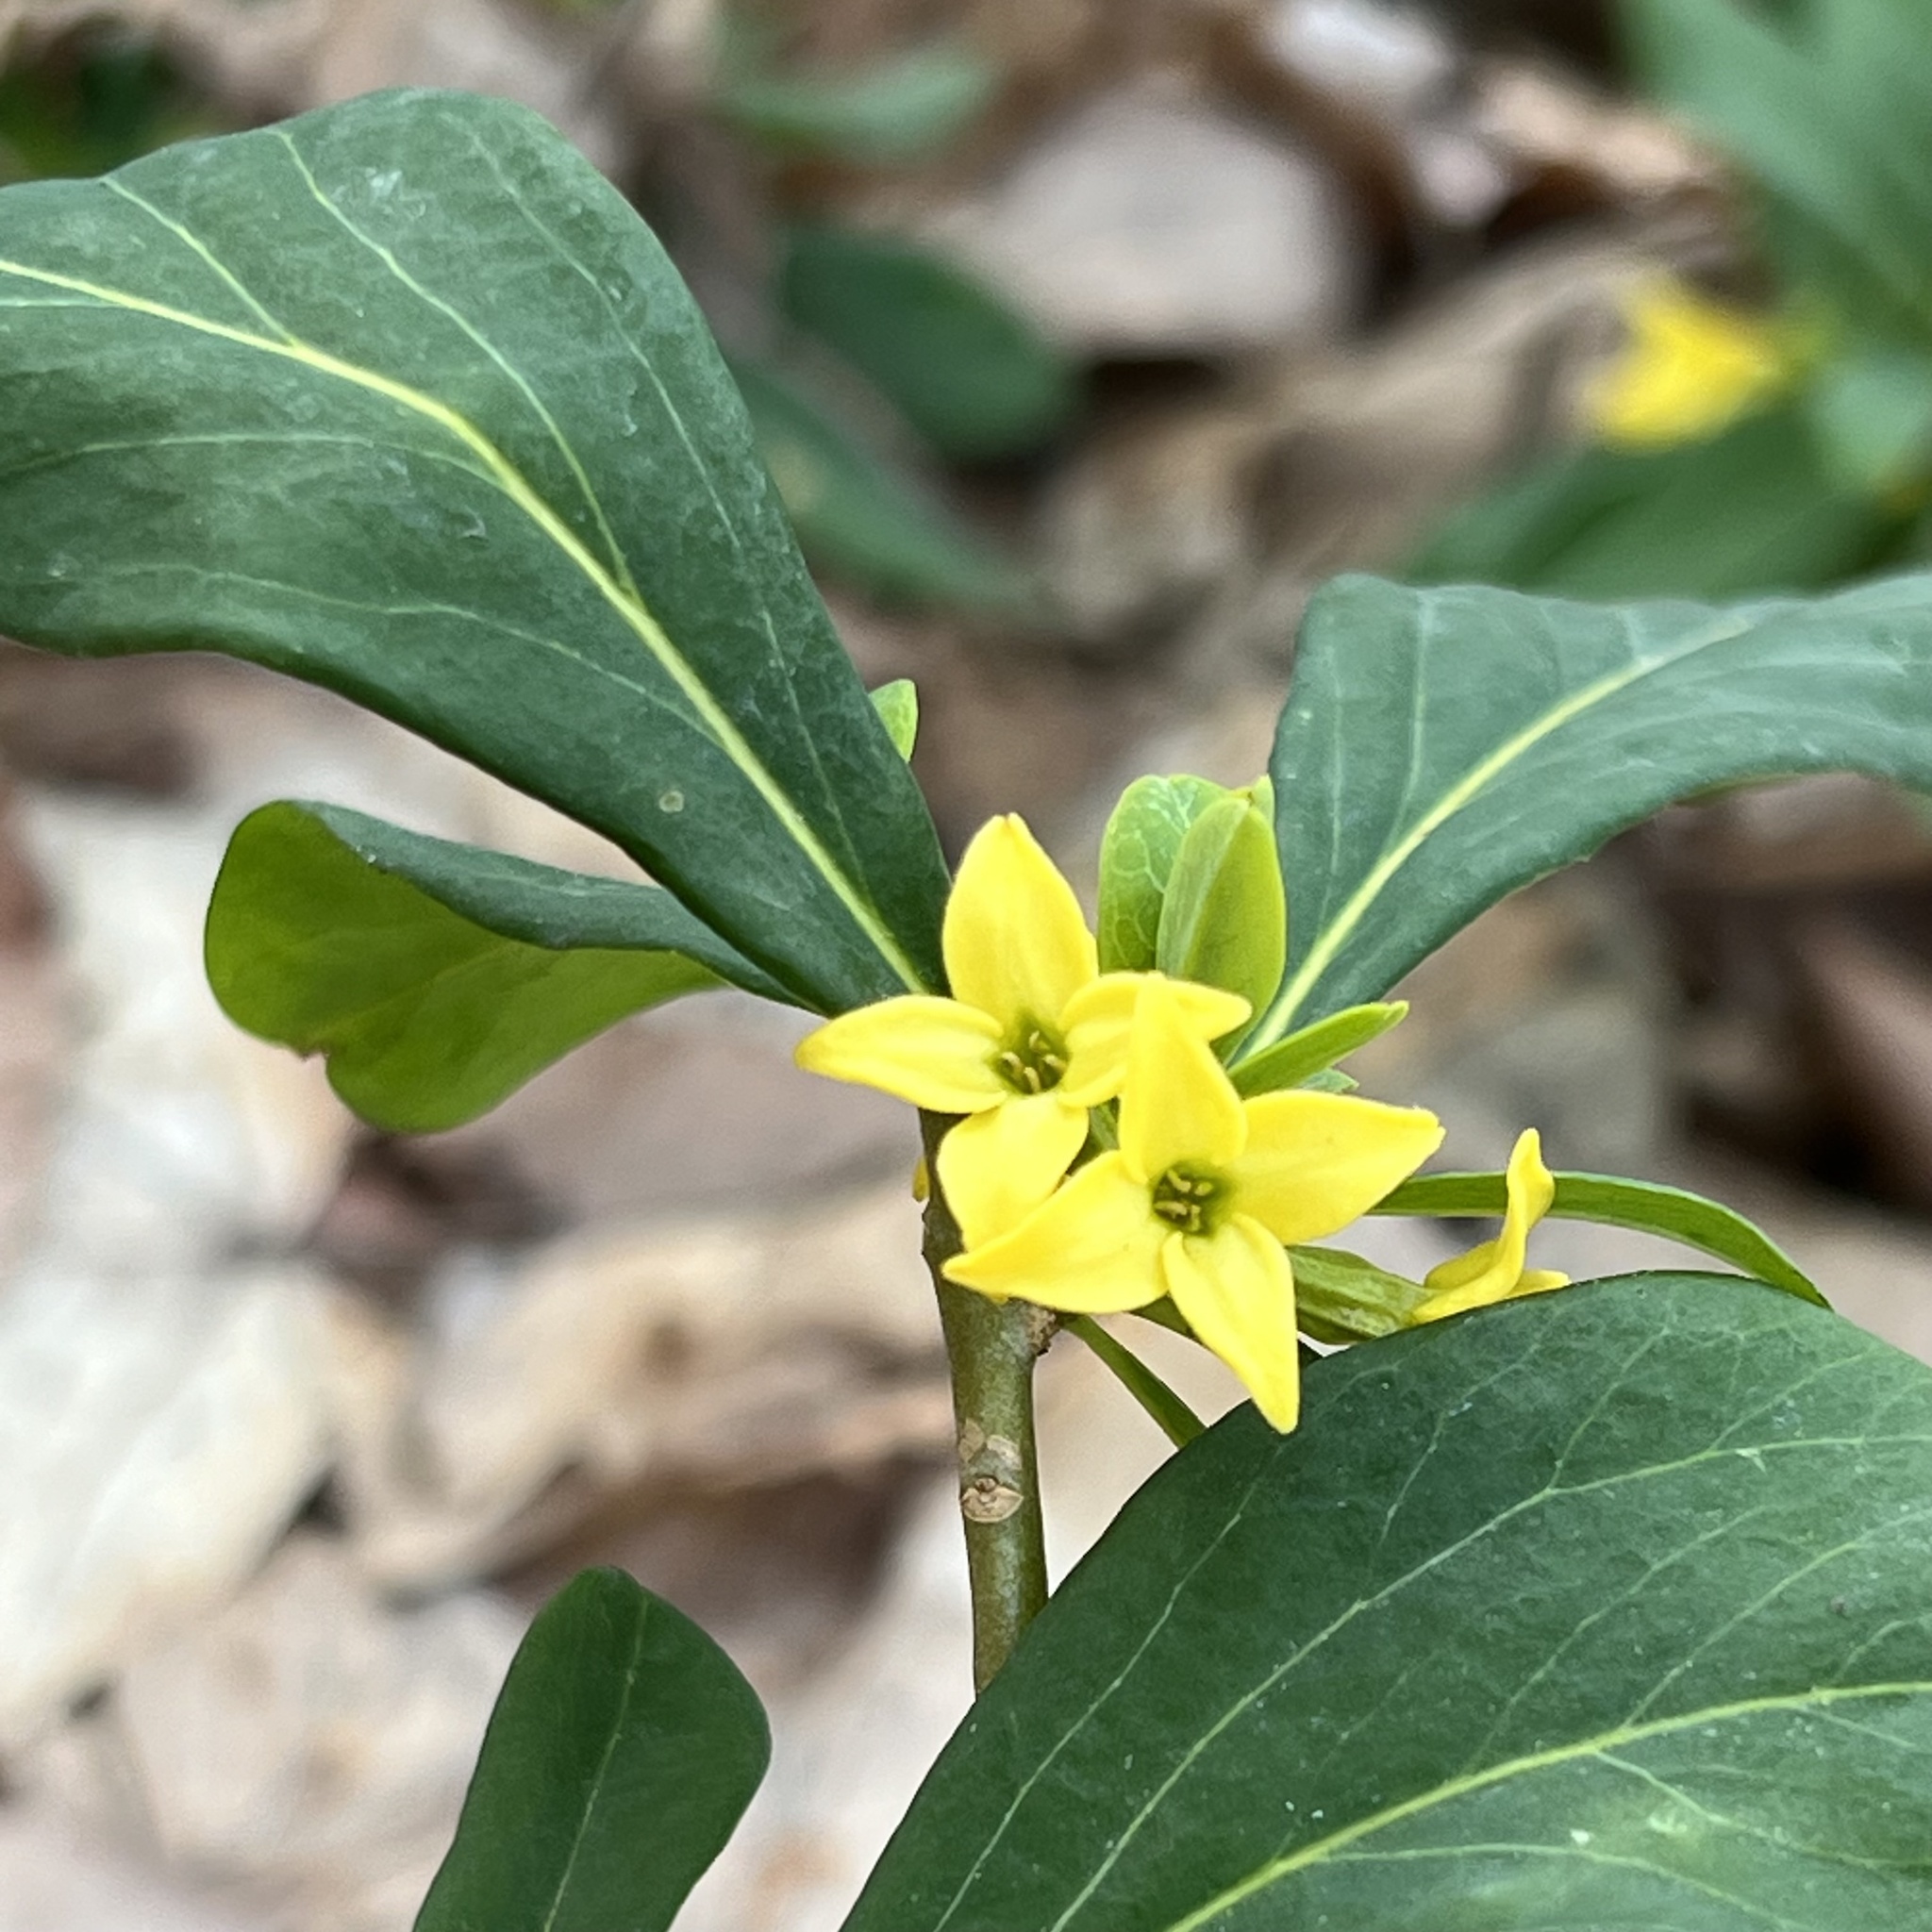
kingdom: Plantae
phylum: Tracheophyta
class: Magnoliopsida
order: Malvales
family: Thymelaeaceae
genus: Daphne
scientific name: Daphne jezoensis
